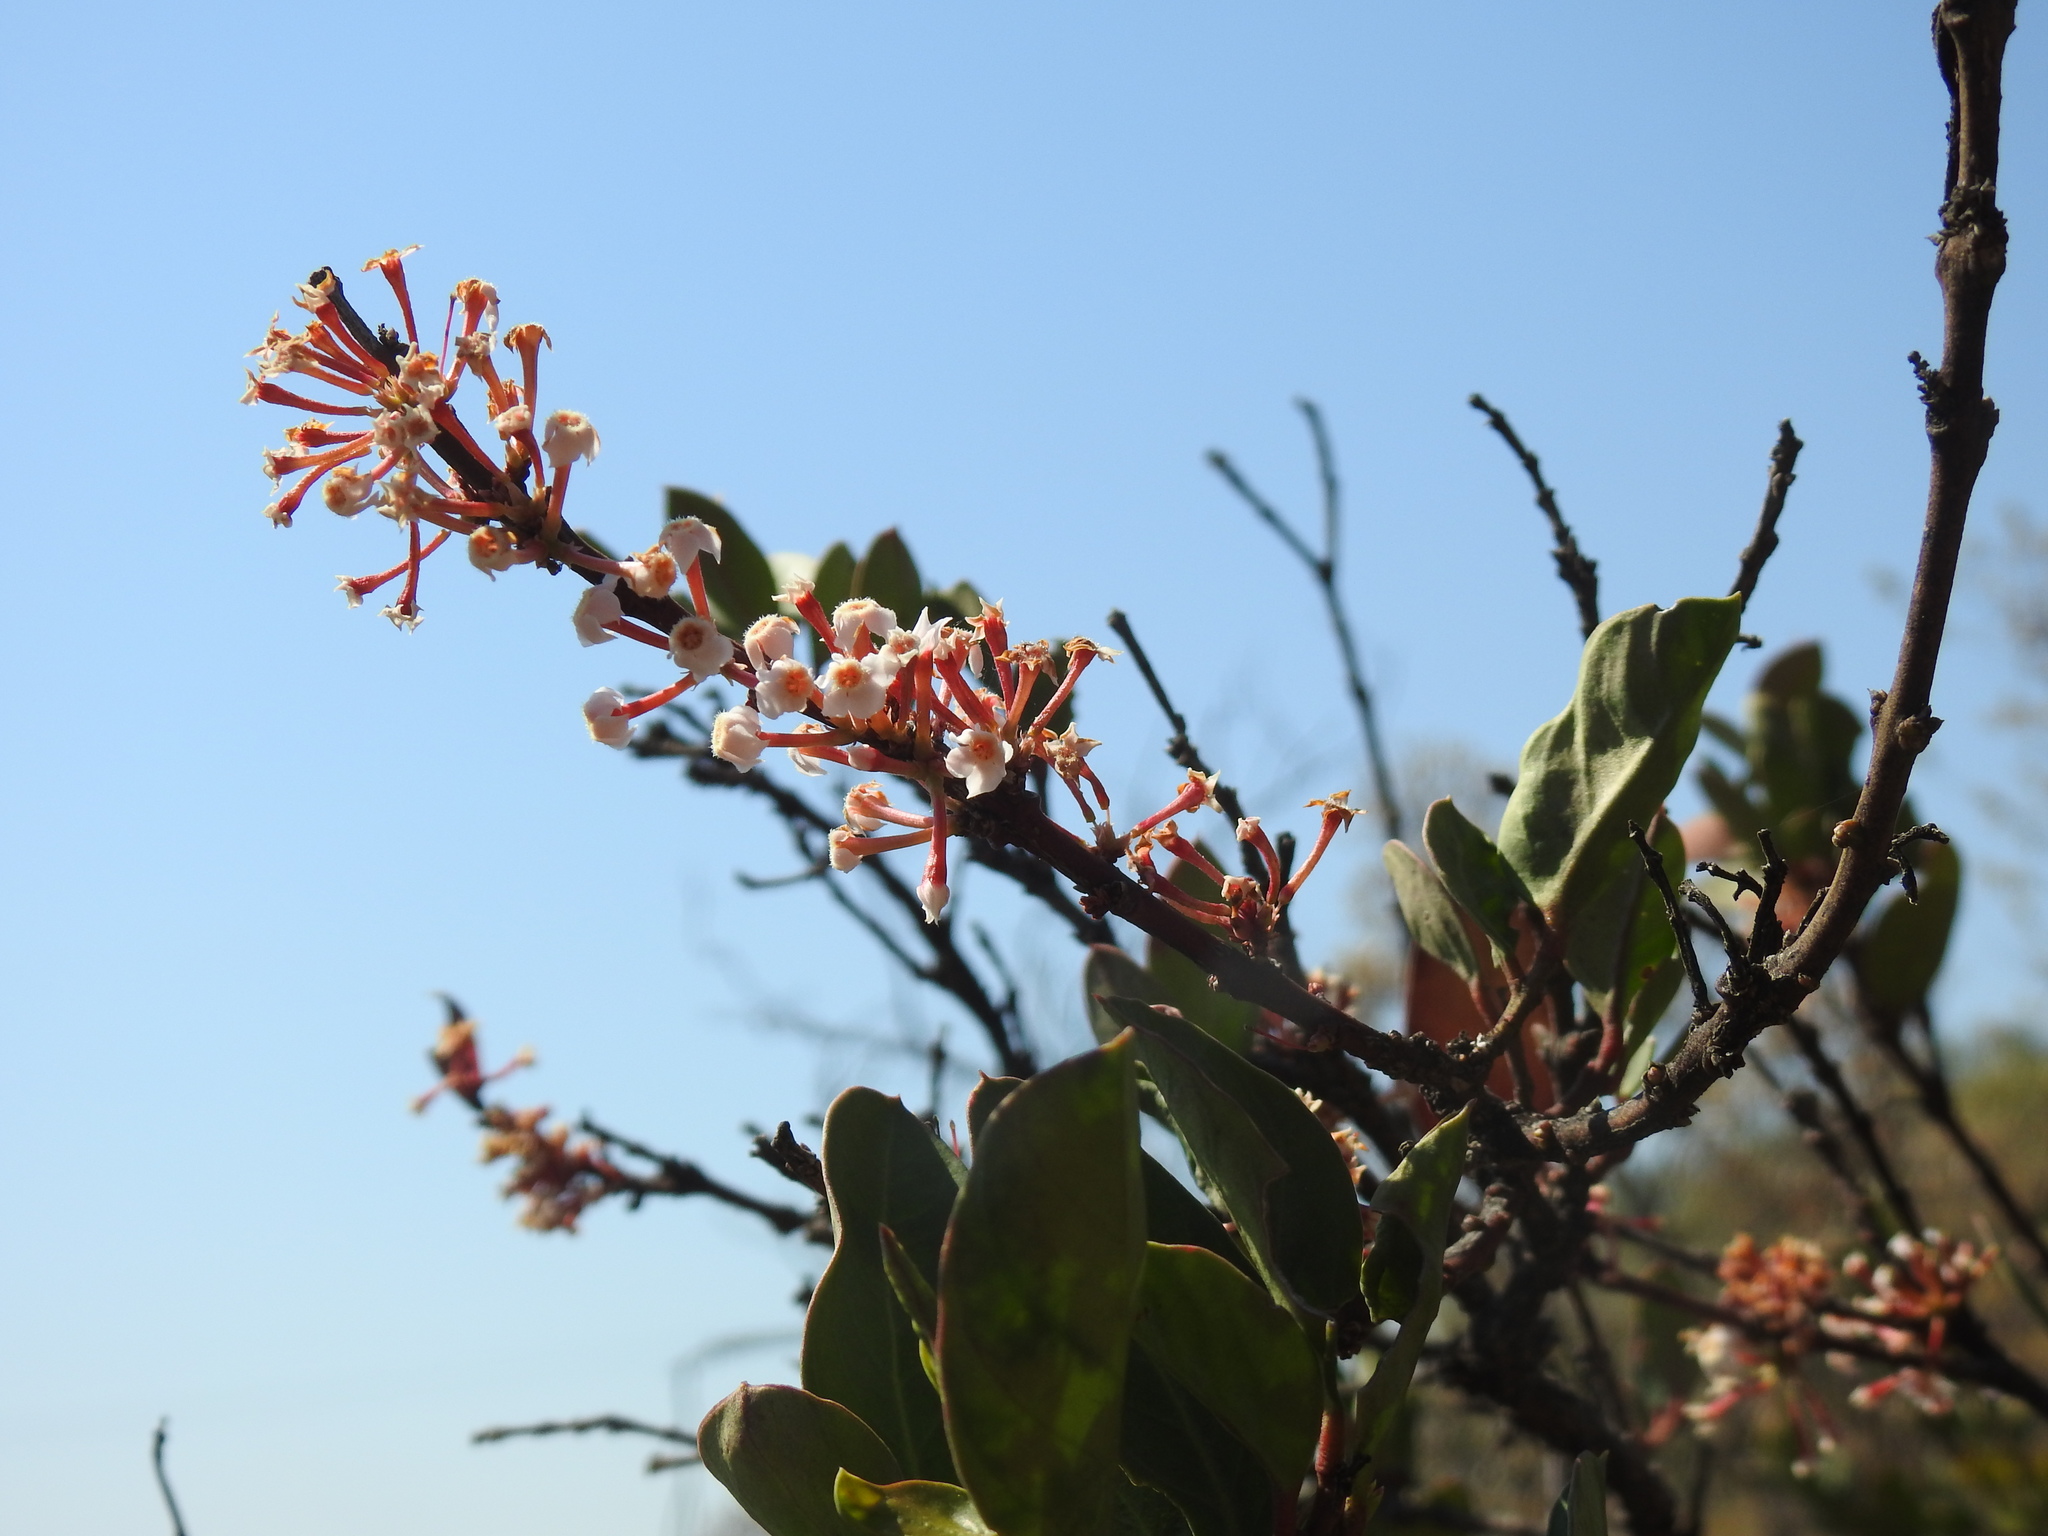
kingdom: Plantae
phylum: Tracheophyta
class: Magnoliopsida
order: Gentianales
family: Apocynaceae
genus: Acokanthera
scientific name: Acokanthera oppositifolia
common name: Bushman's-poison
